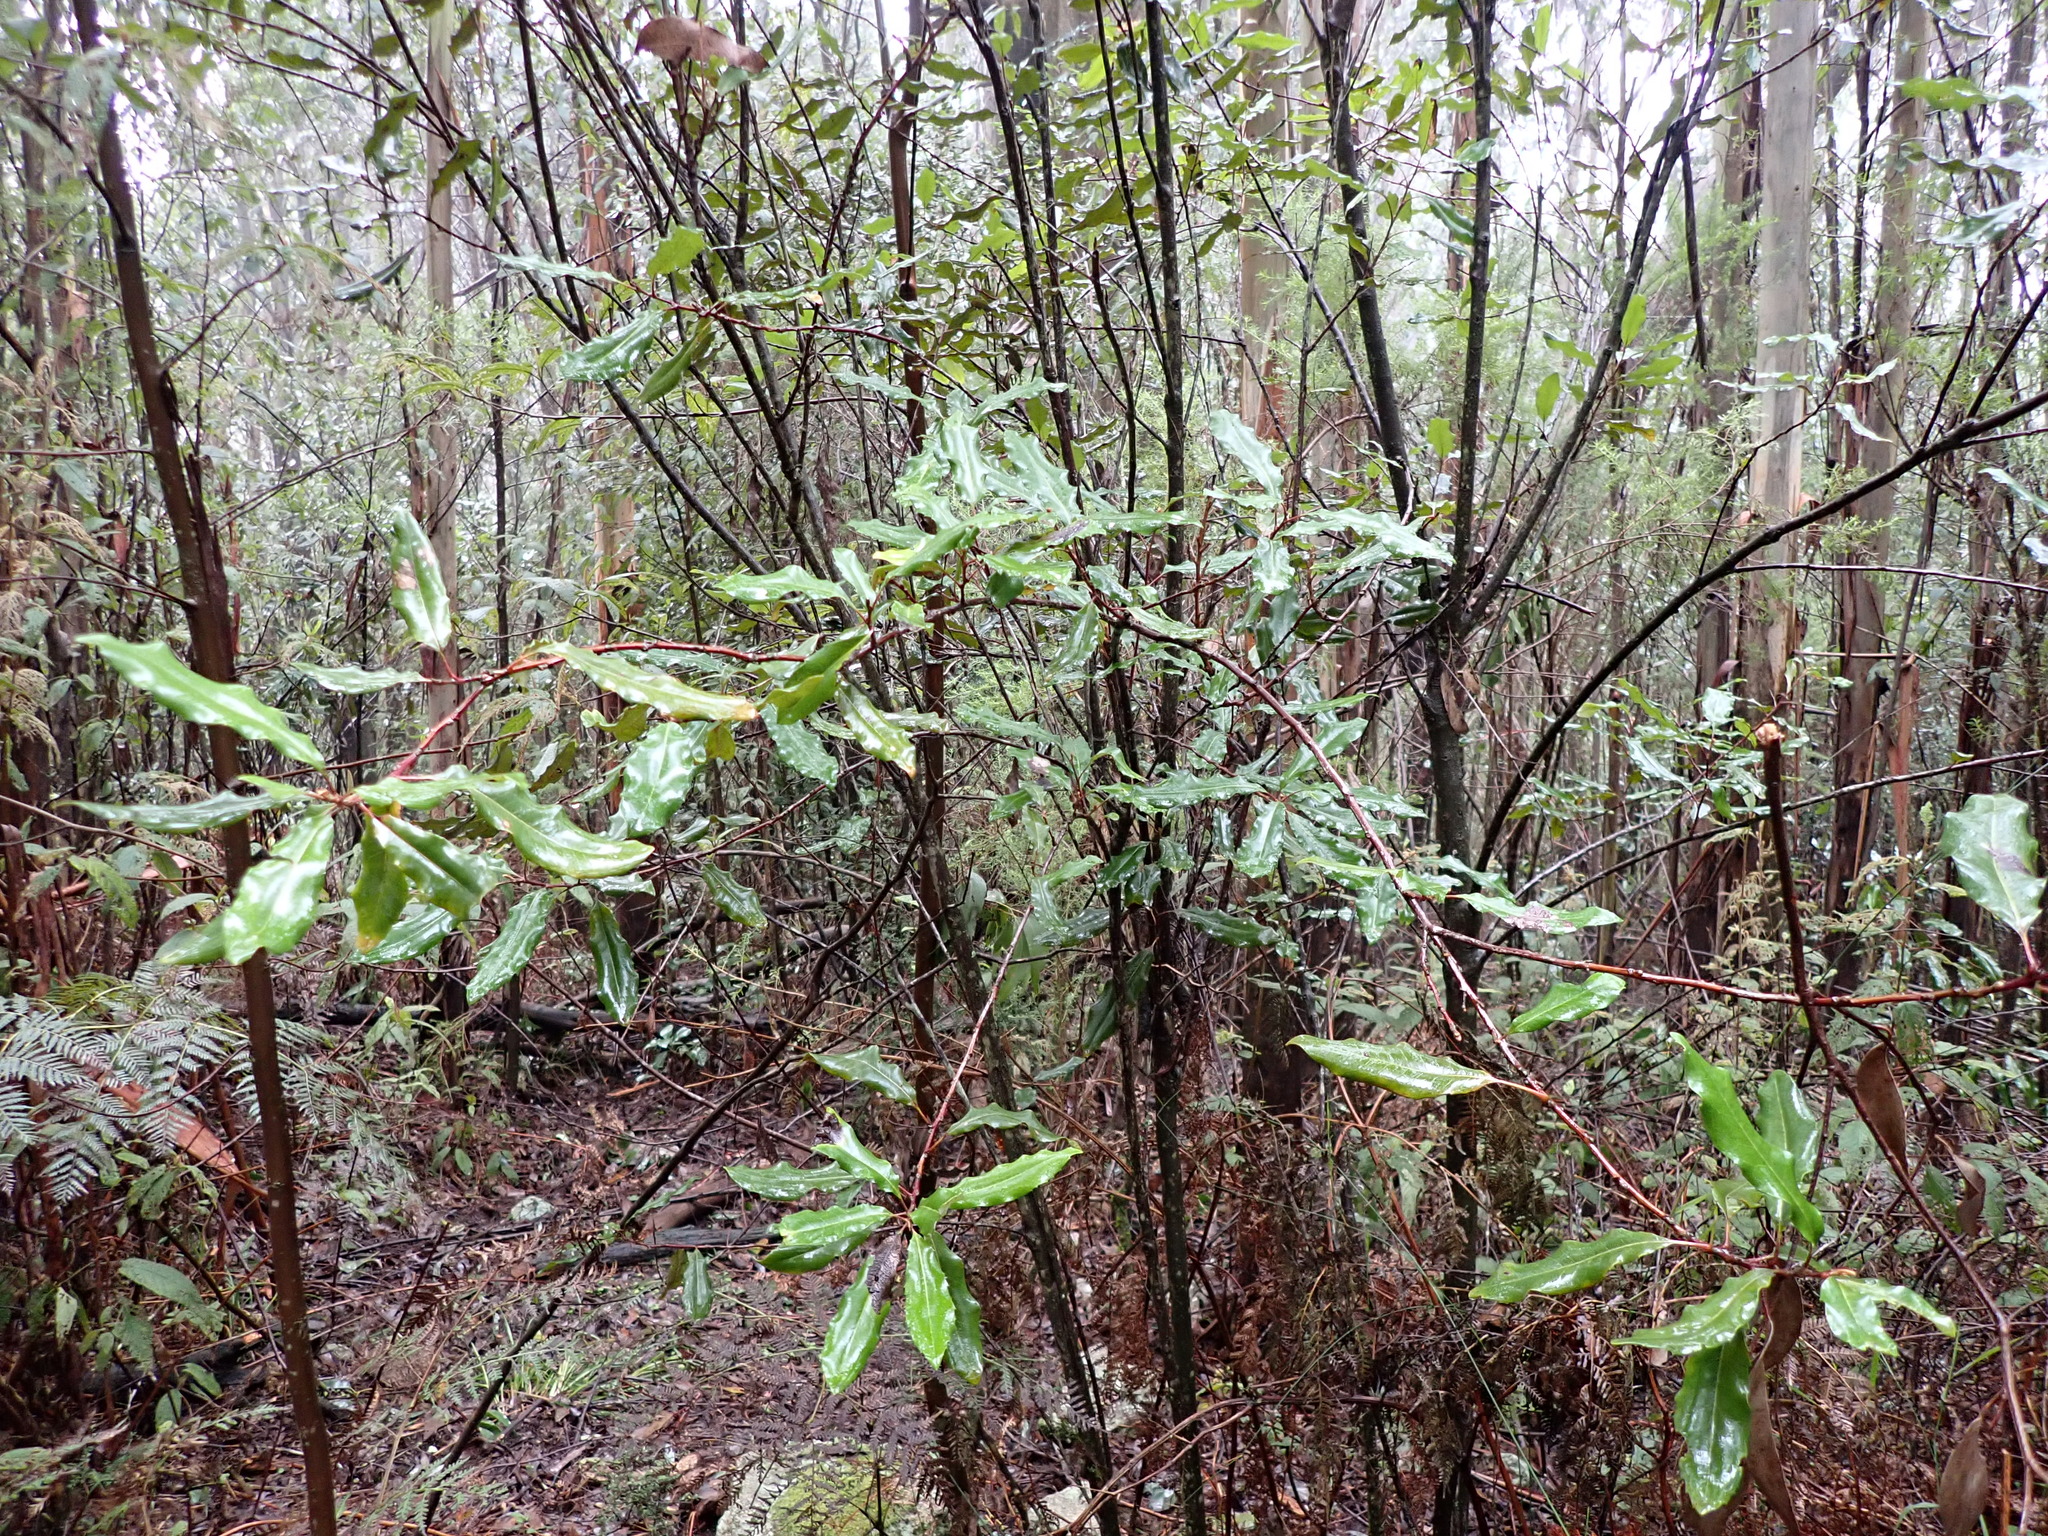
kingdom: Plantae
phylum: Tracheophyta
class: Magnoliopsida
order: Proteales
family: Proteaceae
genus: Lomatia
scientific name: Lomatia fraseri
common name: Forest lomatia
